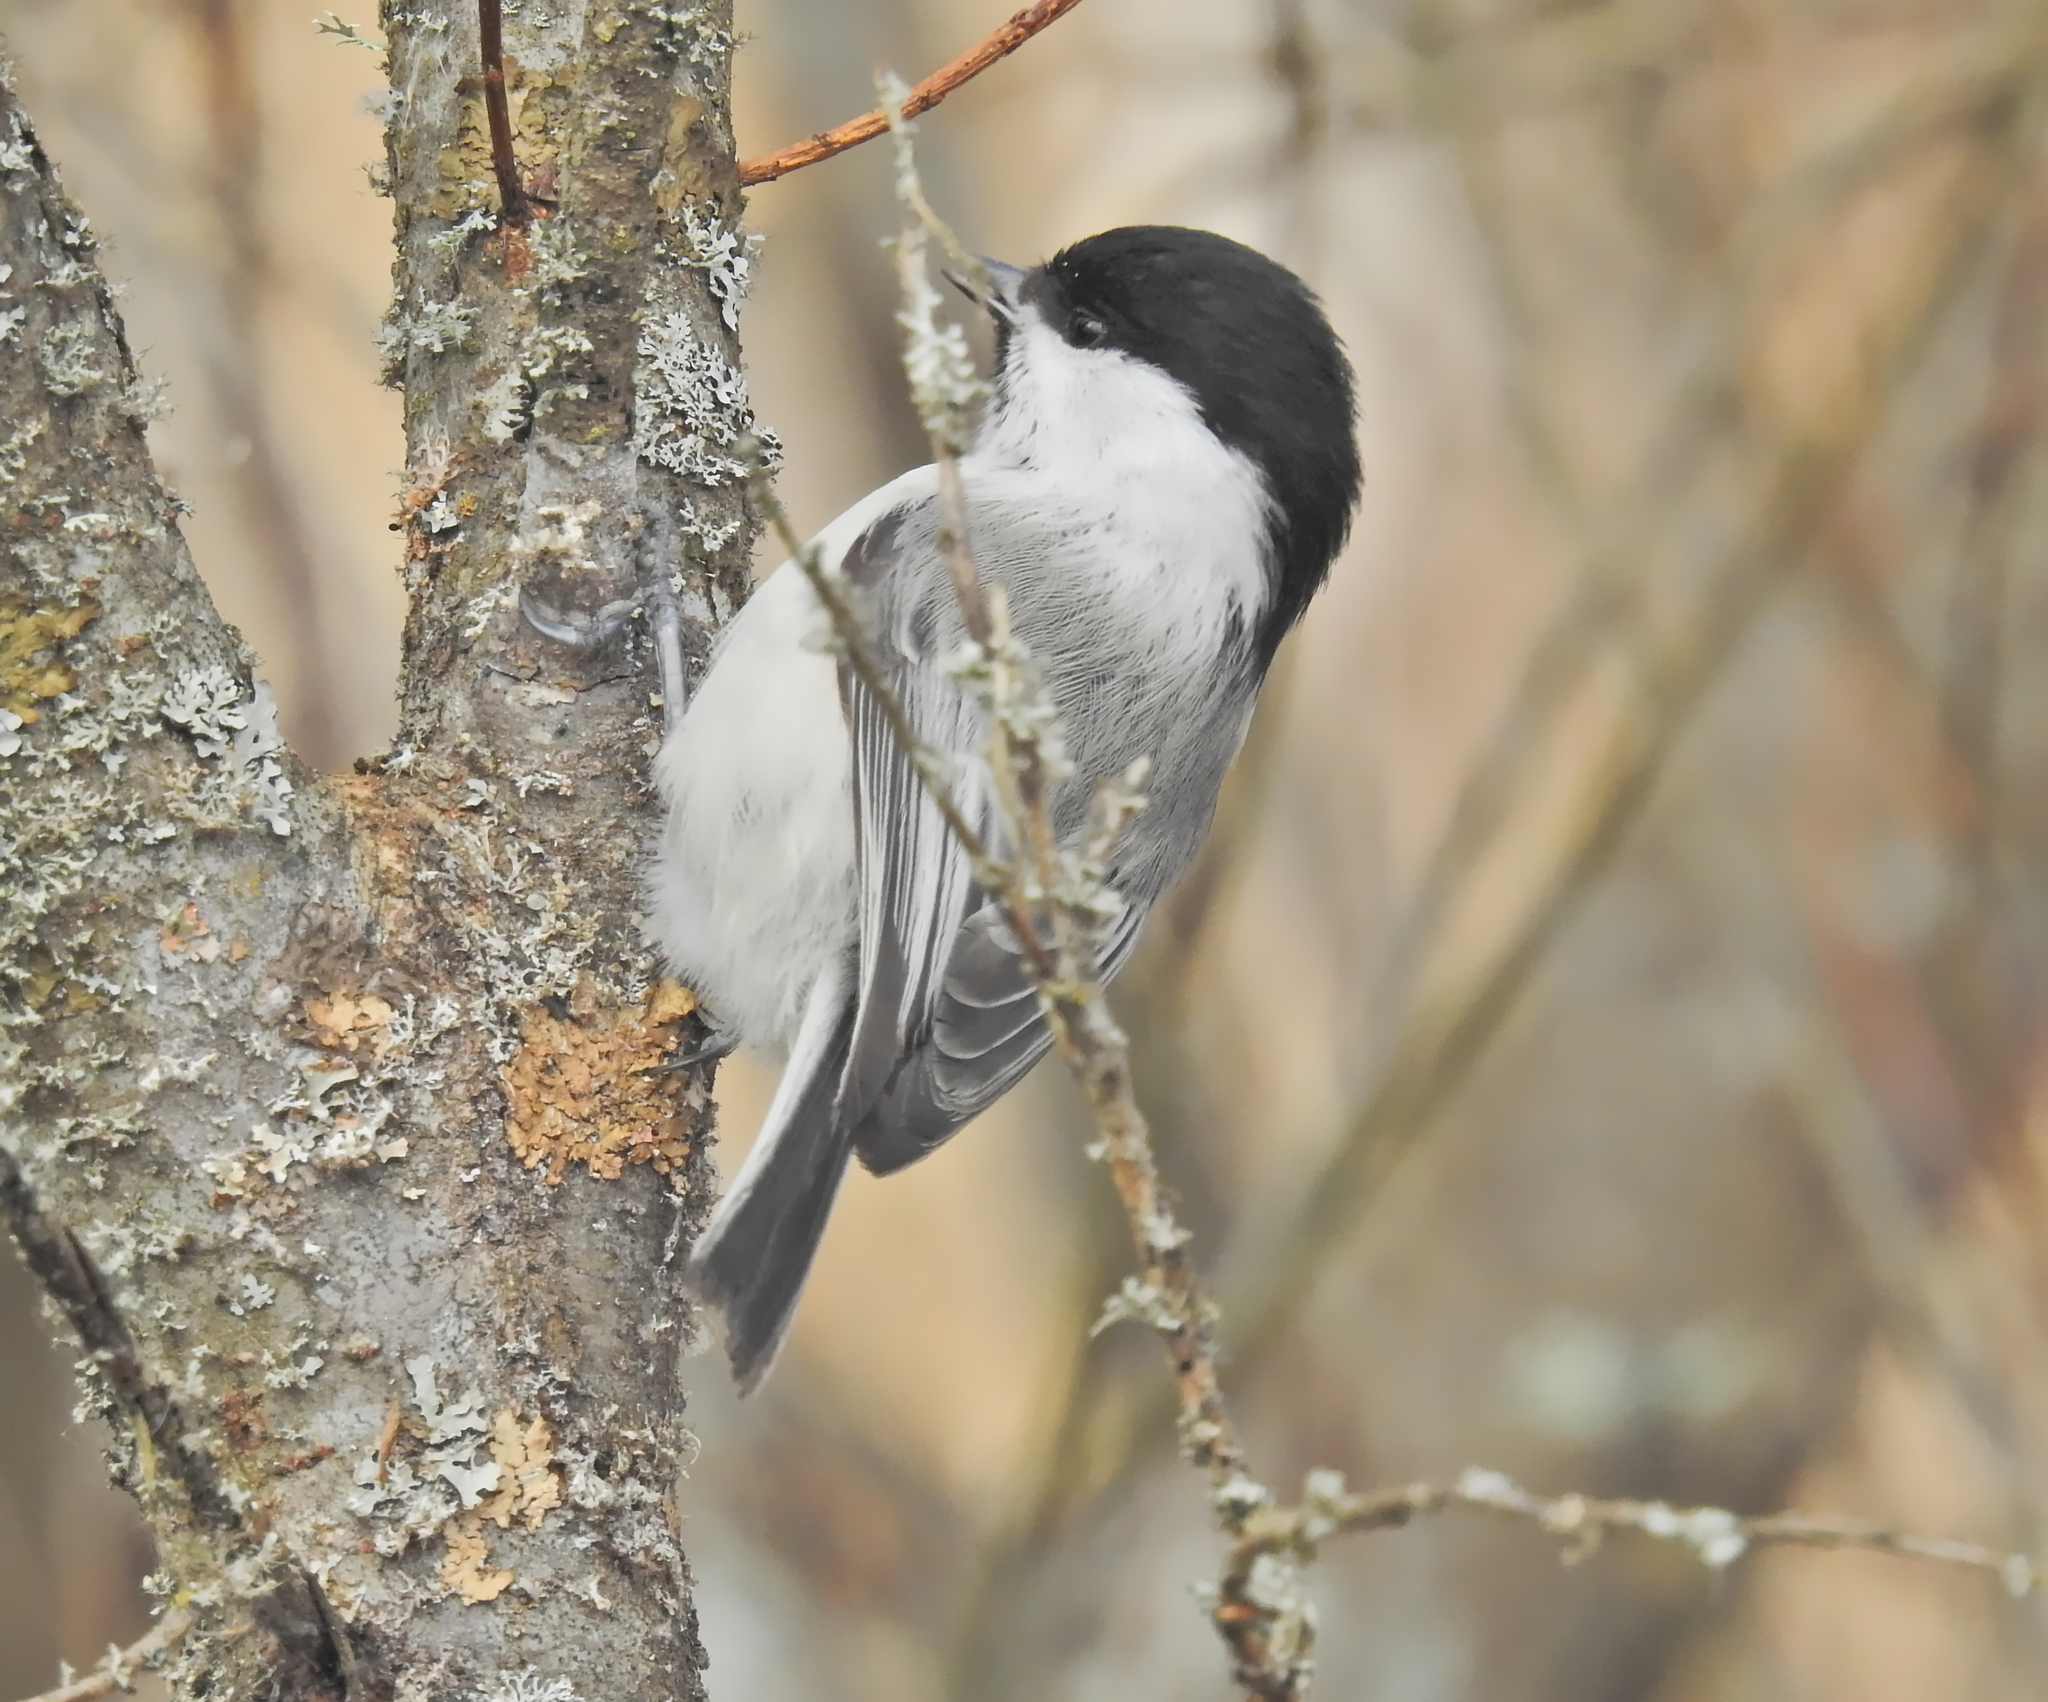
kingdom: Animalia
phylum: Chordata
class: Aves
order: Passeriformes
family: Paridae
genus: Poecile
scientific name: Poecile montanus
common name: Willow tit
